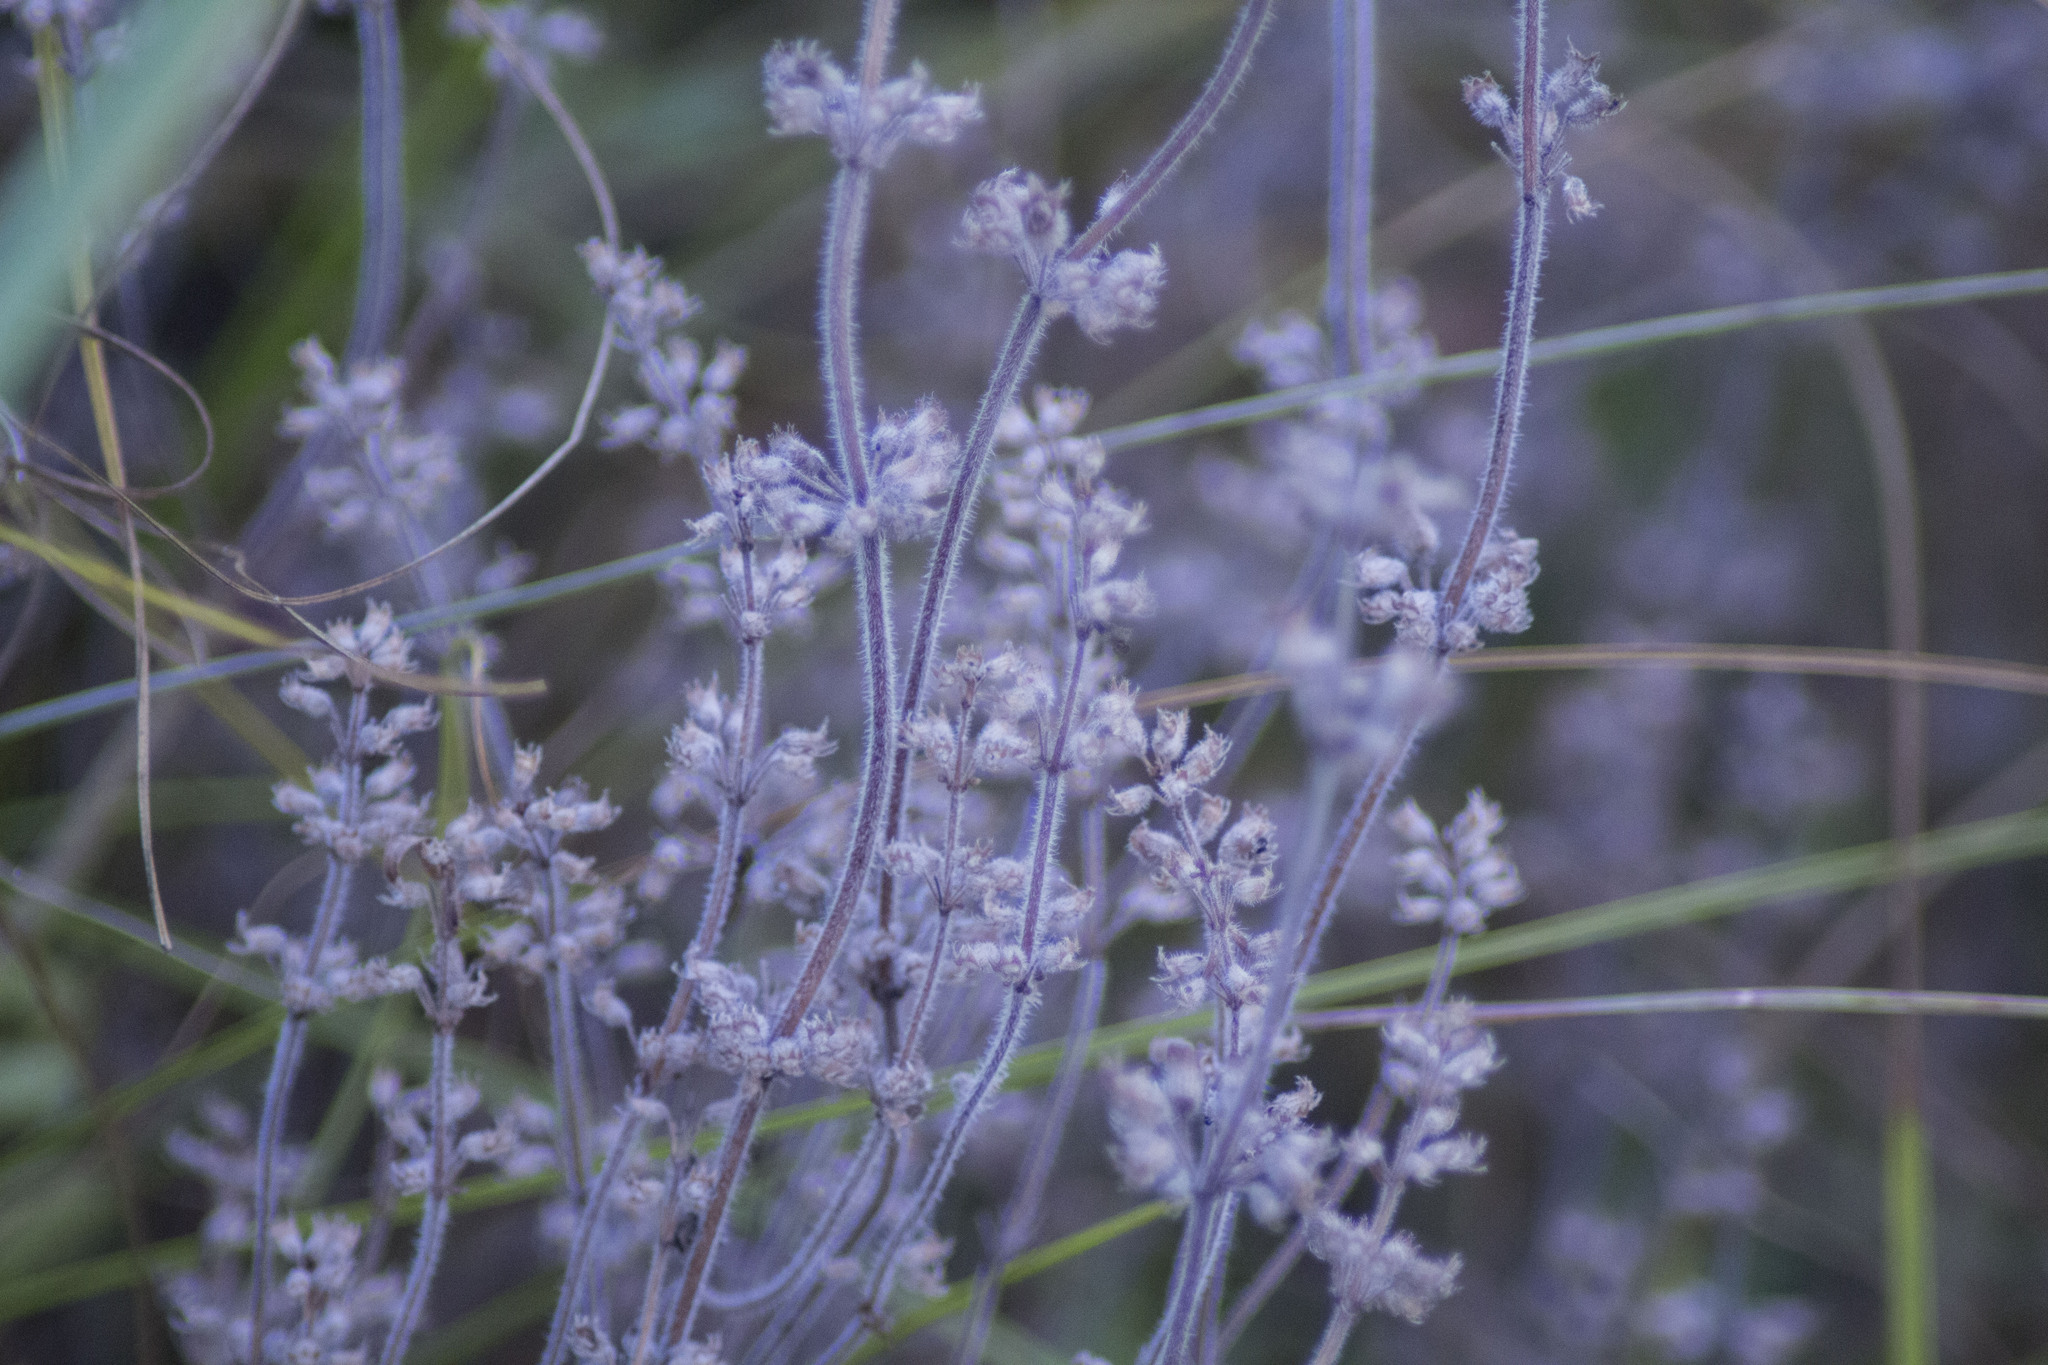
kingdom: Plantae
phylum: Tracheophyta
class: Magnoliopsida
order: Lamiales
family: Lamiaceae
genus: Thymus
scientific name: Thymus pannonicus
